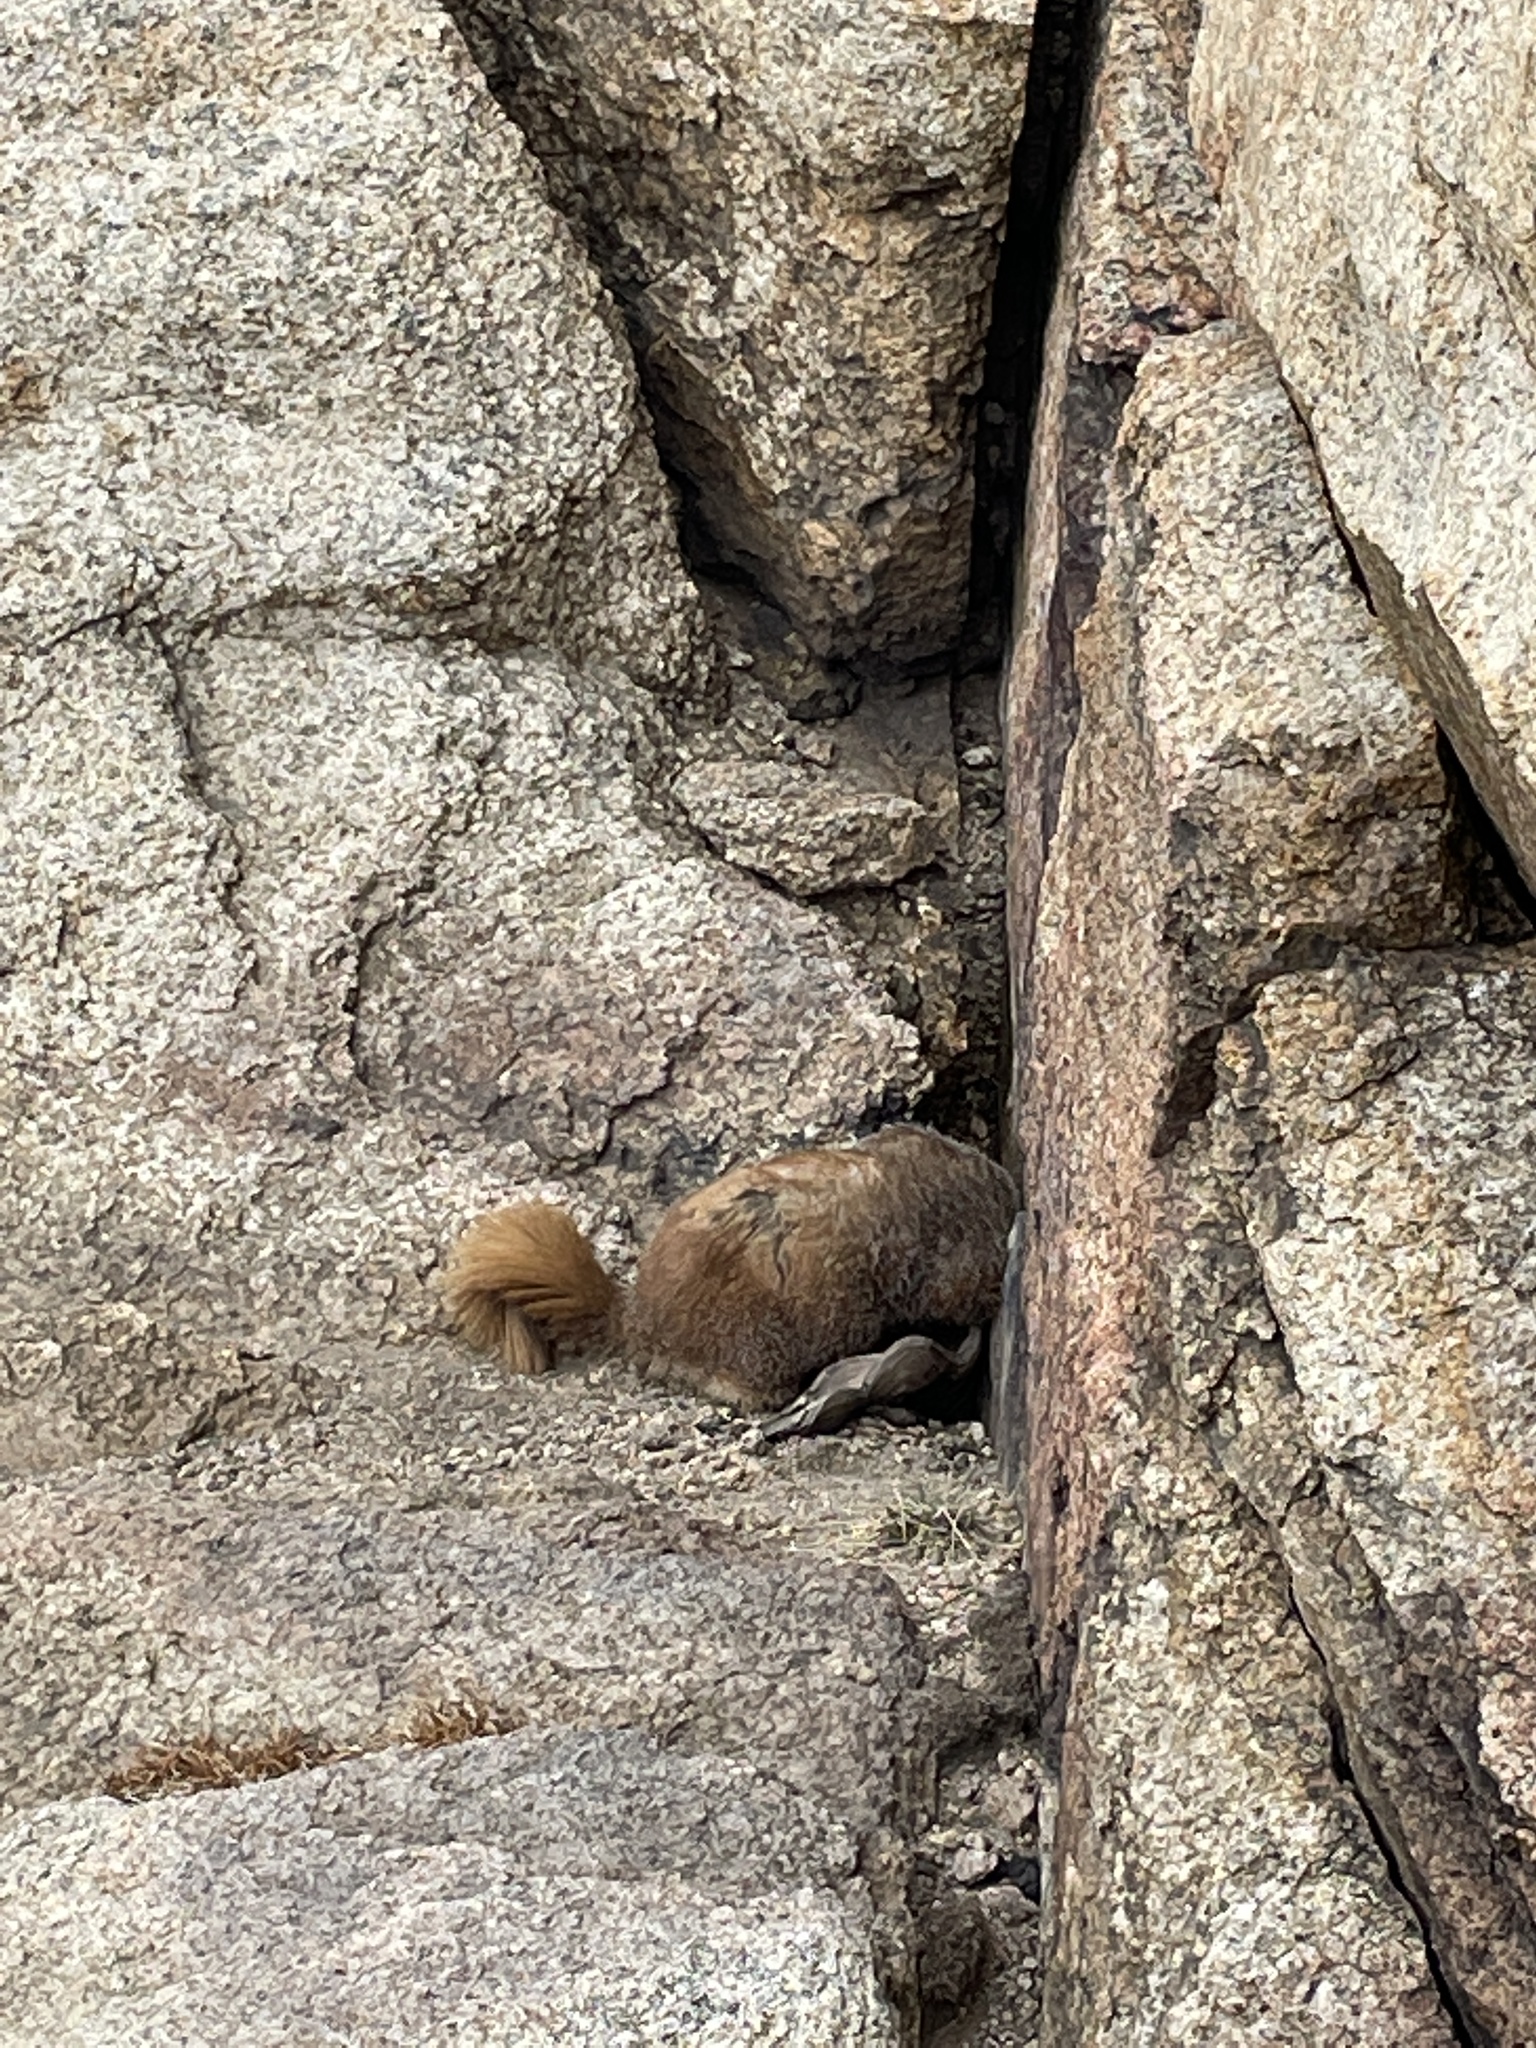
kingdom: Animalia
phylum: Chordata
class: Mammalia
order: Rodentia
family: Sciuridae
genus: Marmota
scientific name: Marmota flaviventris
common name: Yellow-bellied marmot
